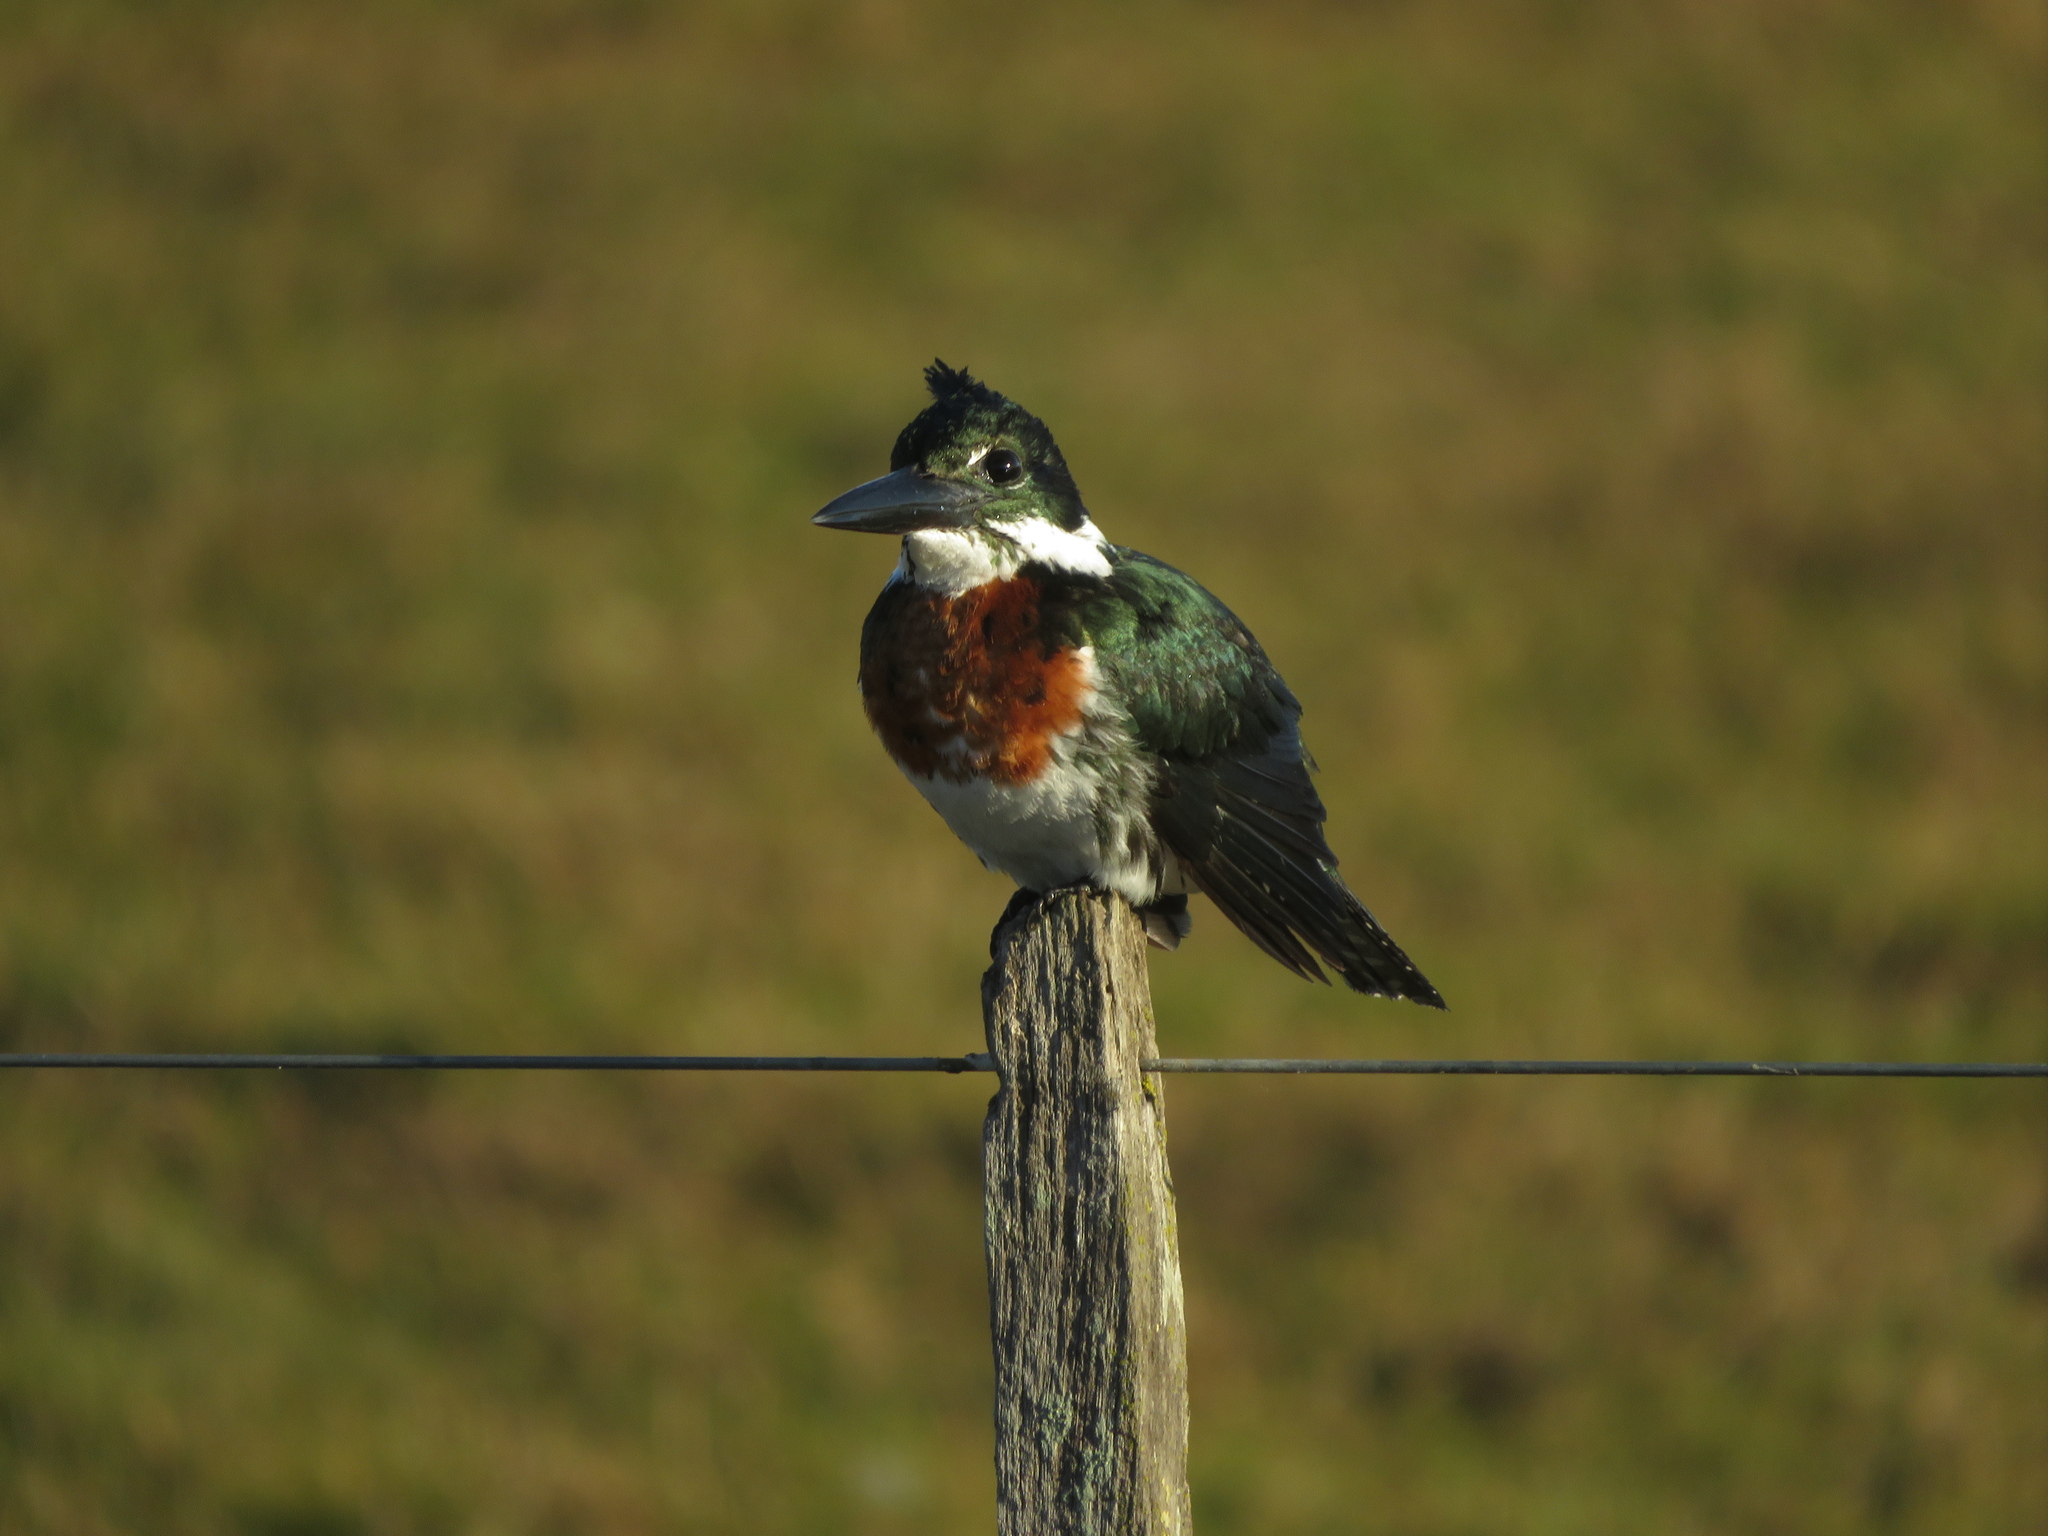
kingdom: Animalia
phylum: Chordata
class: Aves
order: Coraciiformes
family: Alcedinidae
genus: Chloroceryle
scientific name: Chloroceryle amazona
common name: Amazon kingfisher
